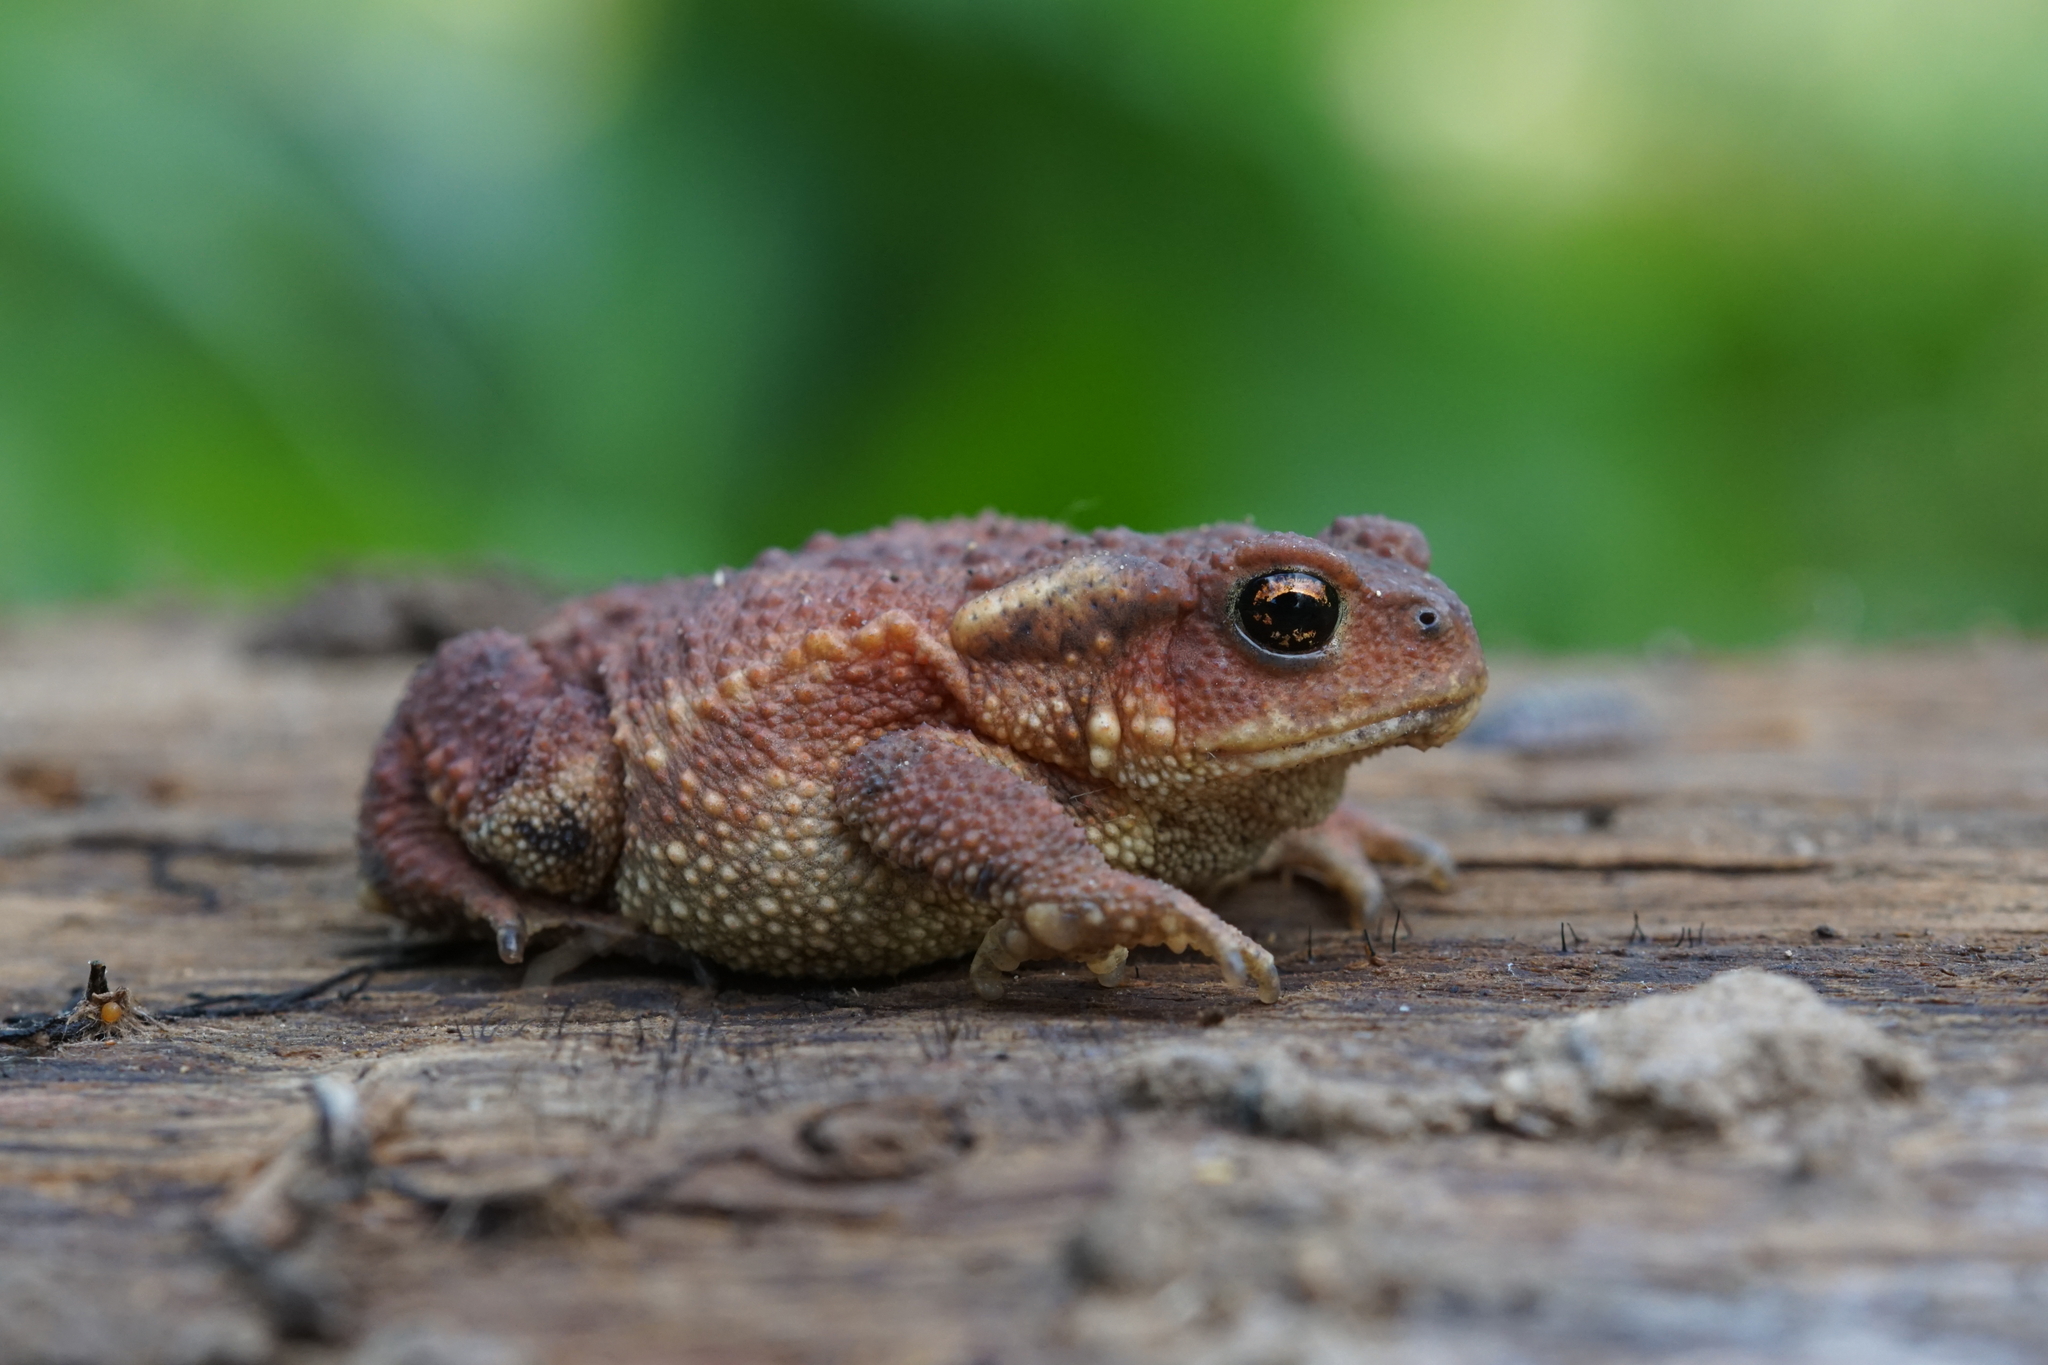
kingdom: Animalia
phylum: Chordata
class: Amphibia
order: Anura
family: Bufonidae
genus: Bufo
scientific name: Bufo spinosus
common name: Western common toad
